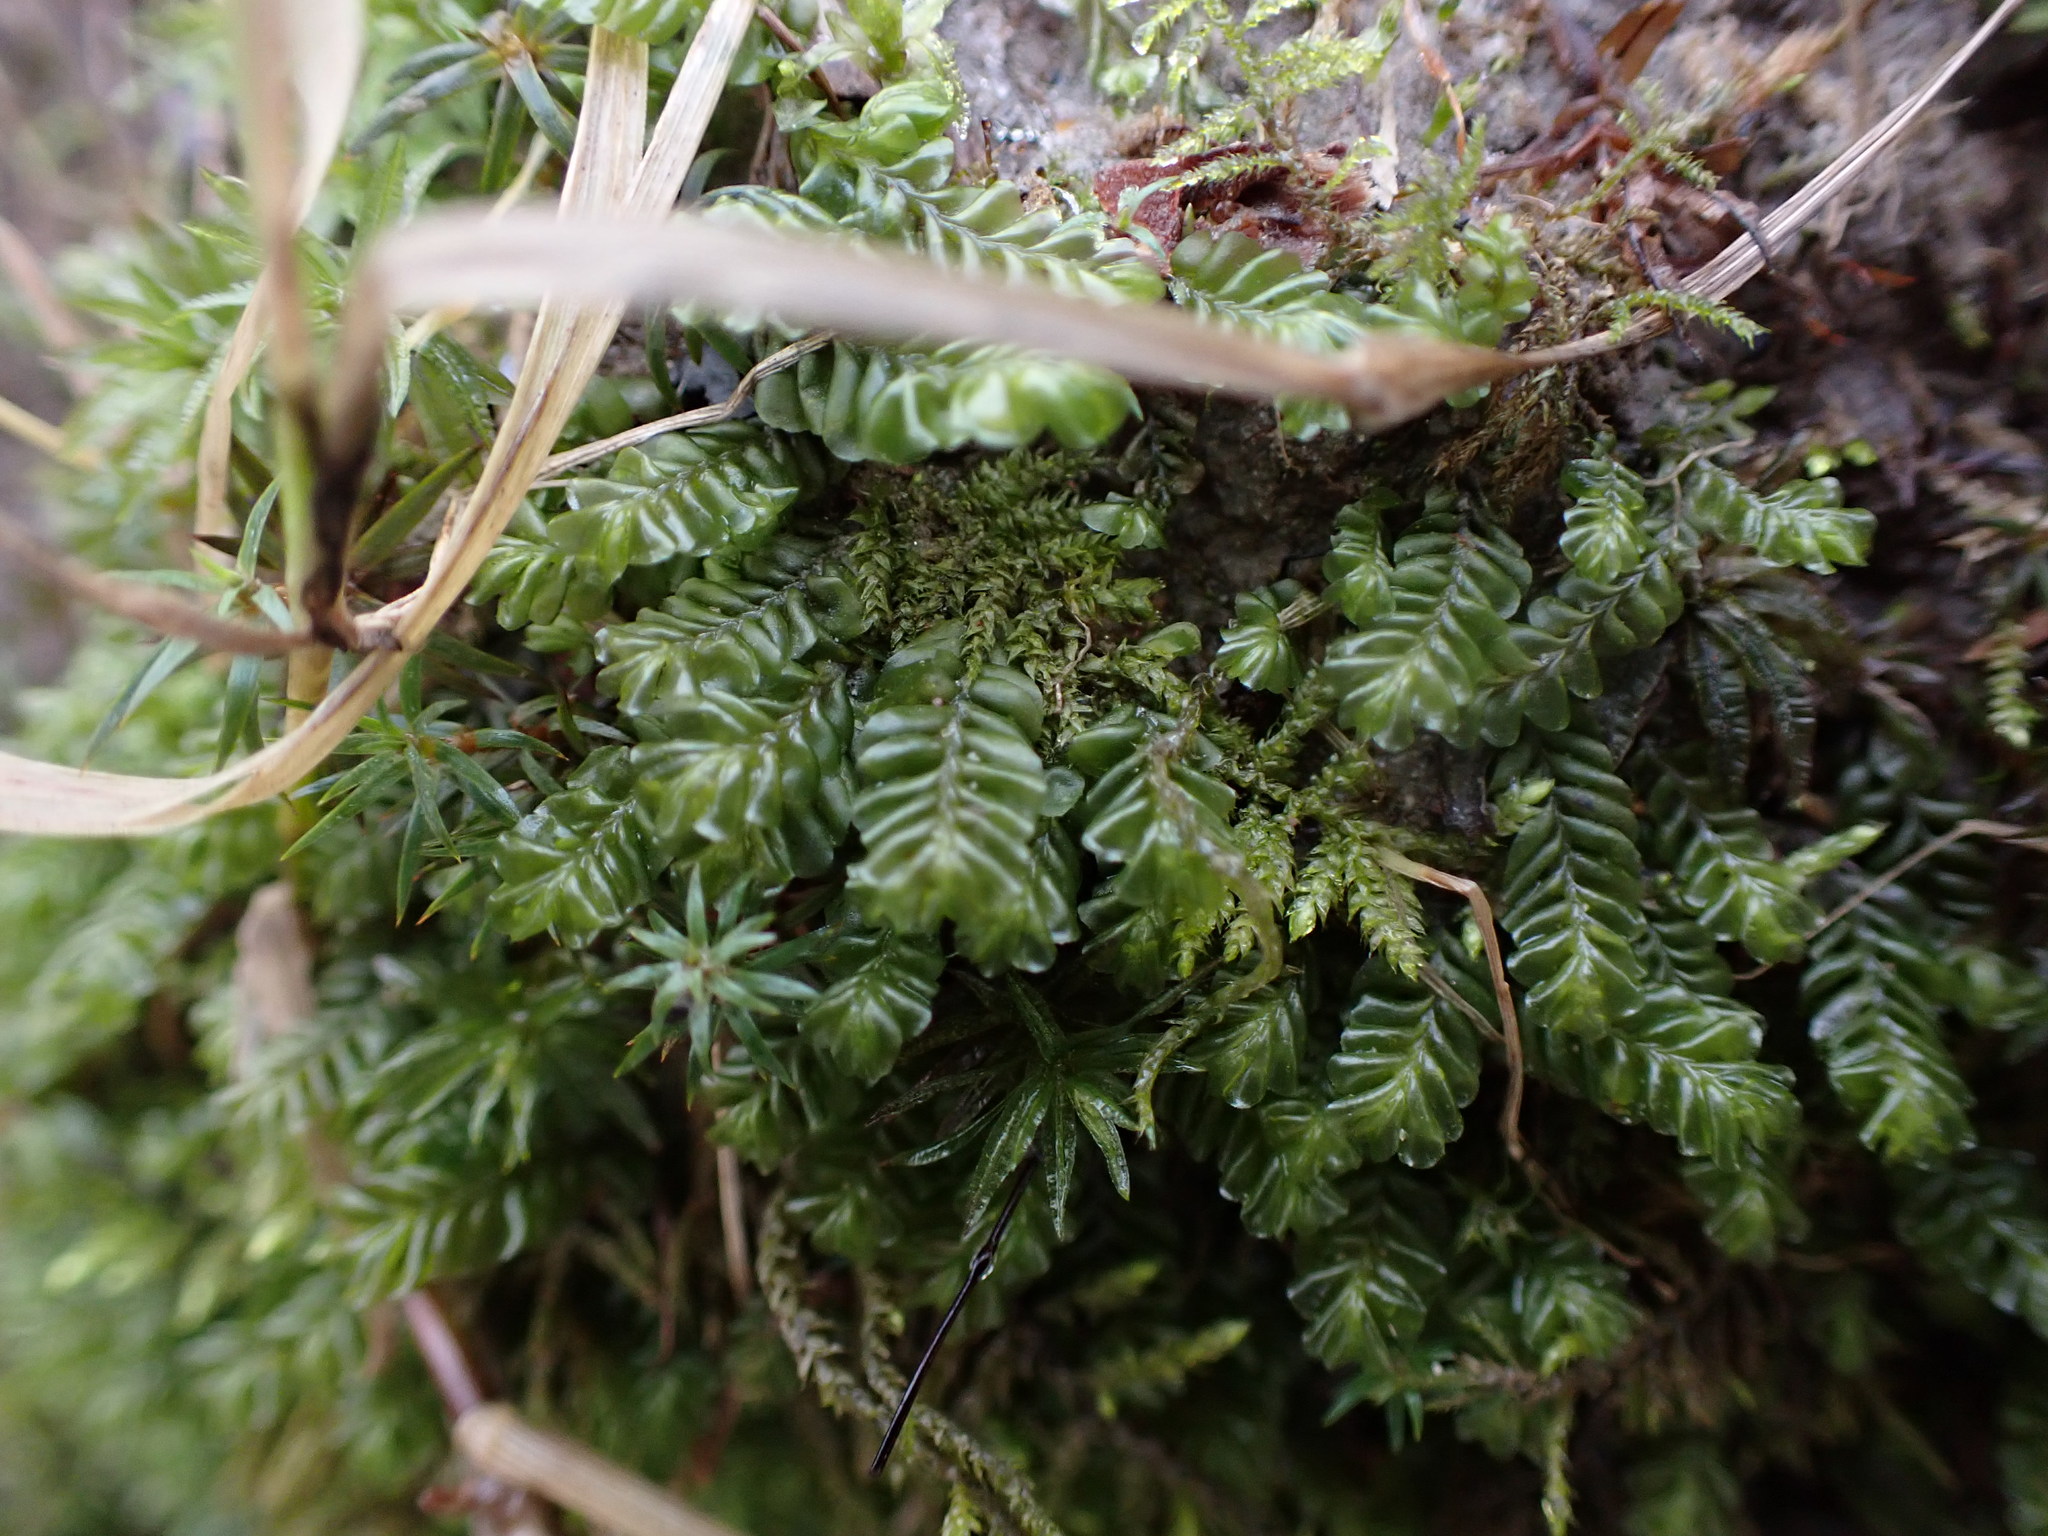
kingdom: Plantae
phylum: Marchantiophyta
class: Jungermanniopsida
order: Jungermanniales
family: Plagiochilaceae
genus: Plagiochila
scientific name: Plagiochila porelloides
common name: Lesser featherwort
